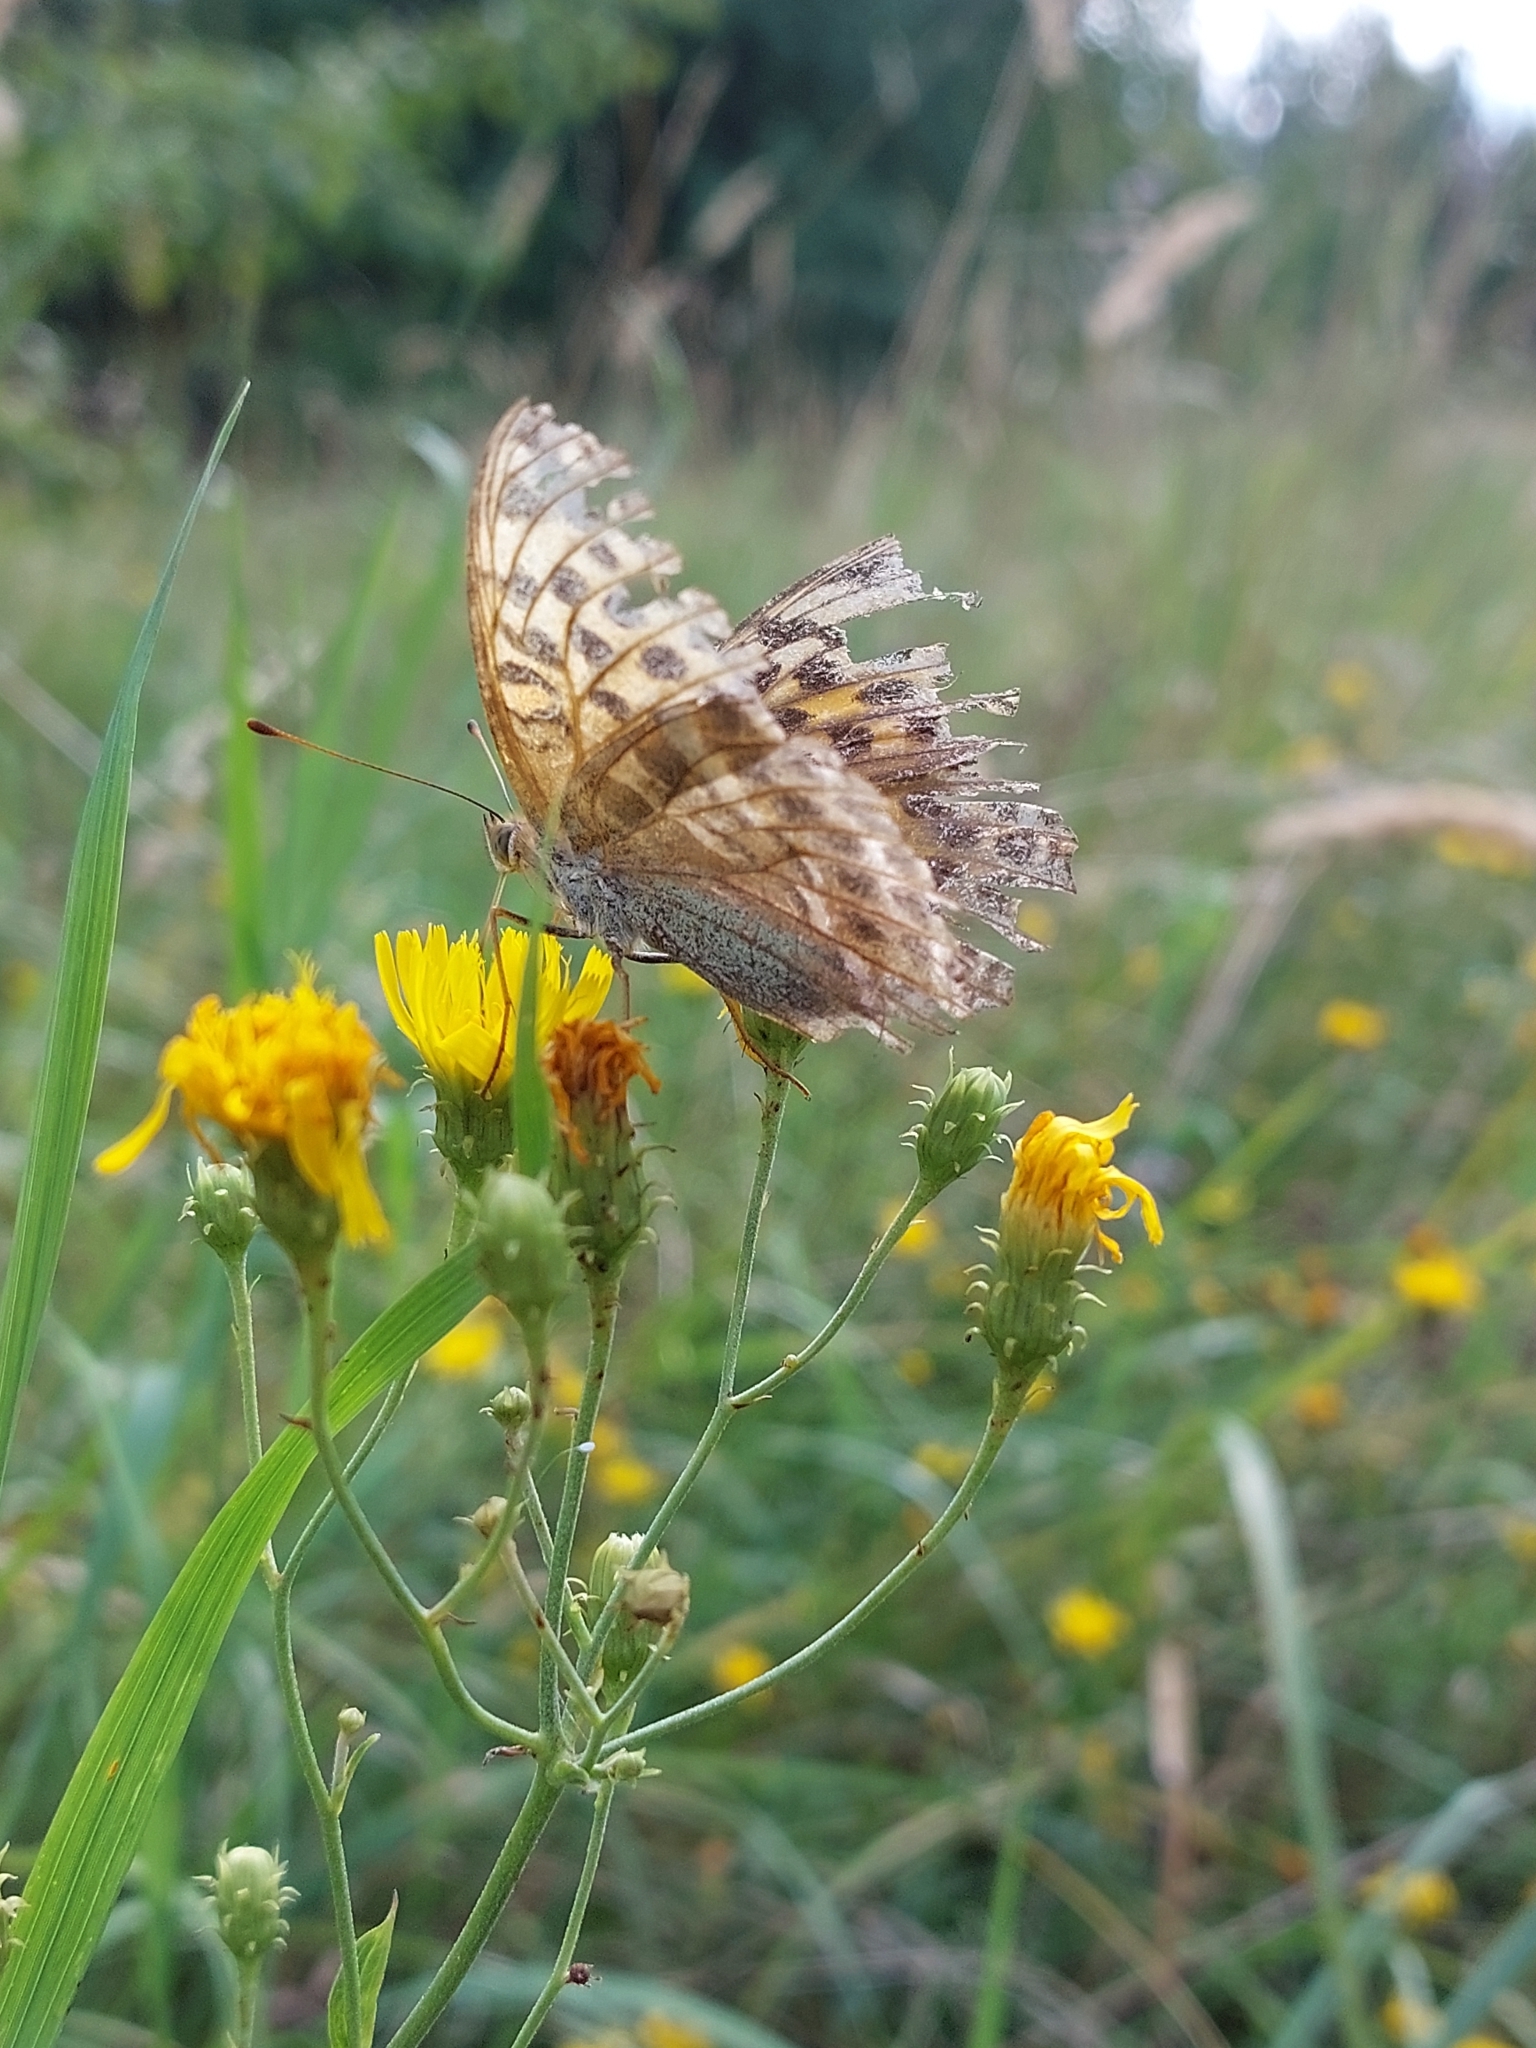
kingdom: Animalia
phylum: Arthropoda
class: Insecta
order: Lepidoptera
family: Nymphalidae
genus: Argynnis
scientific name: Argynnis paphia
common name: Silver-washed fritillary
